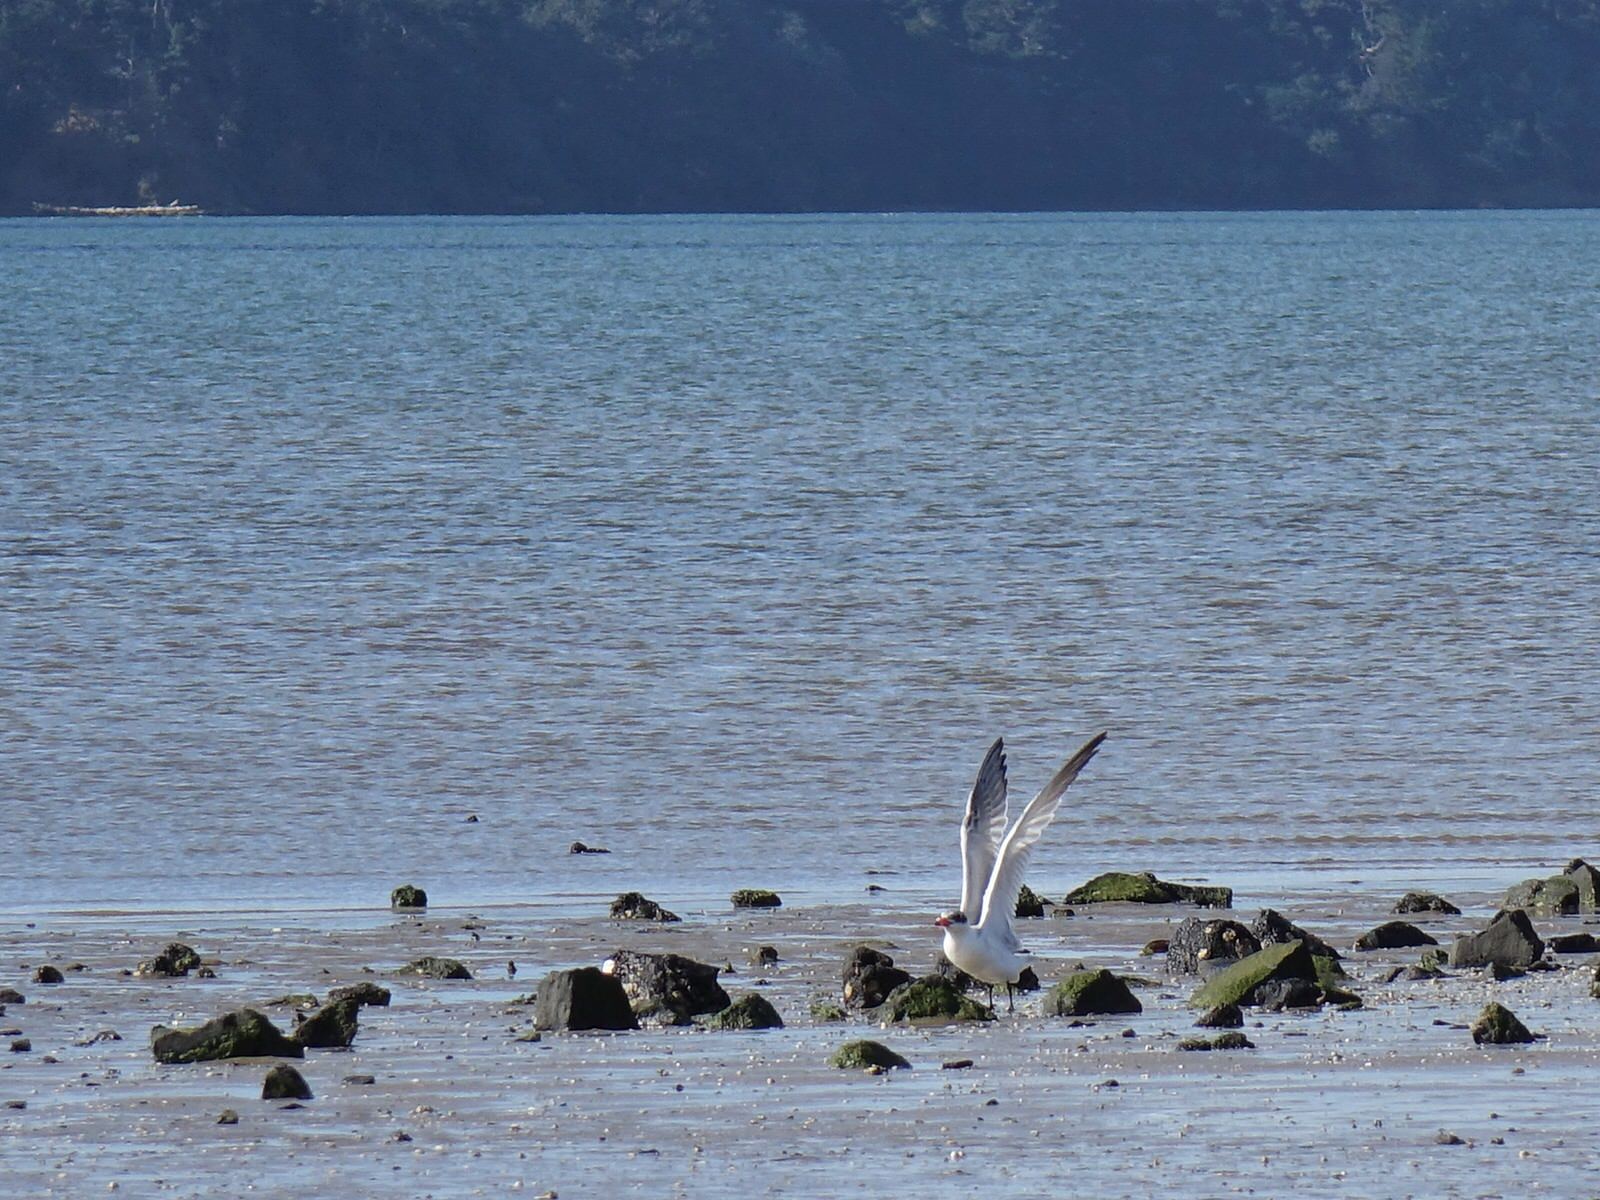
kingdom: Animalia
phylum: Chordata
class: Aves
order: Charadriiformes
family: Laridae
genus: Hydroprogne
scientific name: Hydroprogne caspia
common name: Caspian tern
